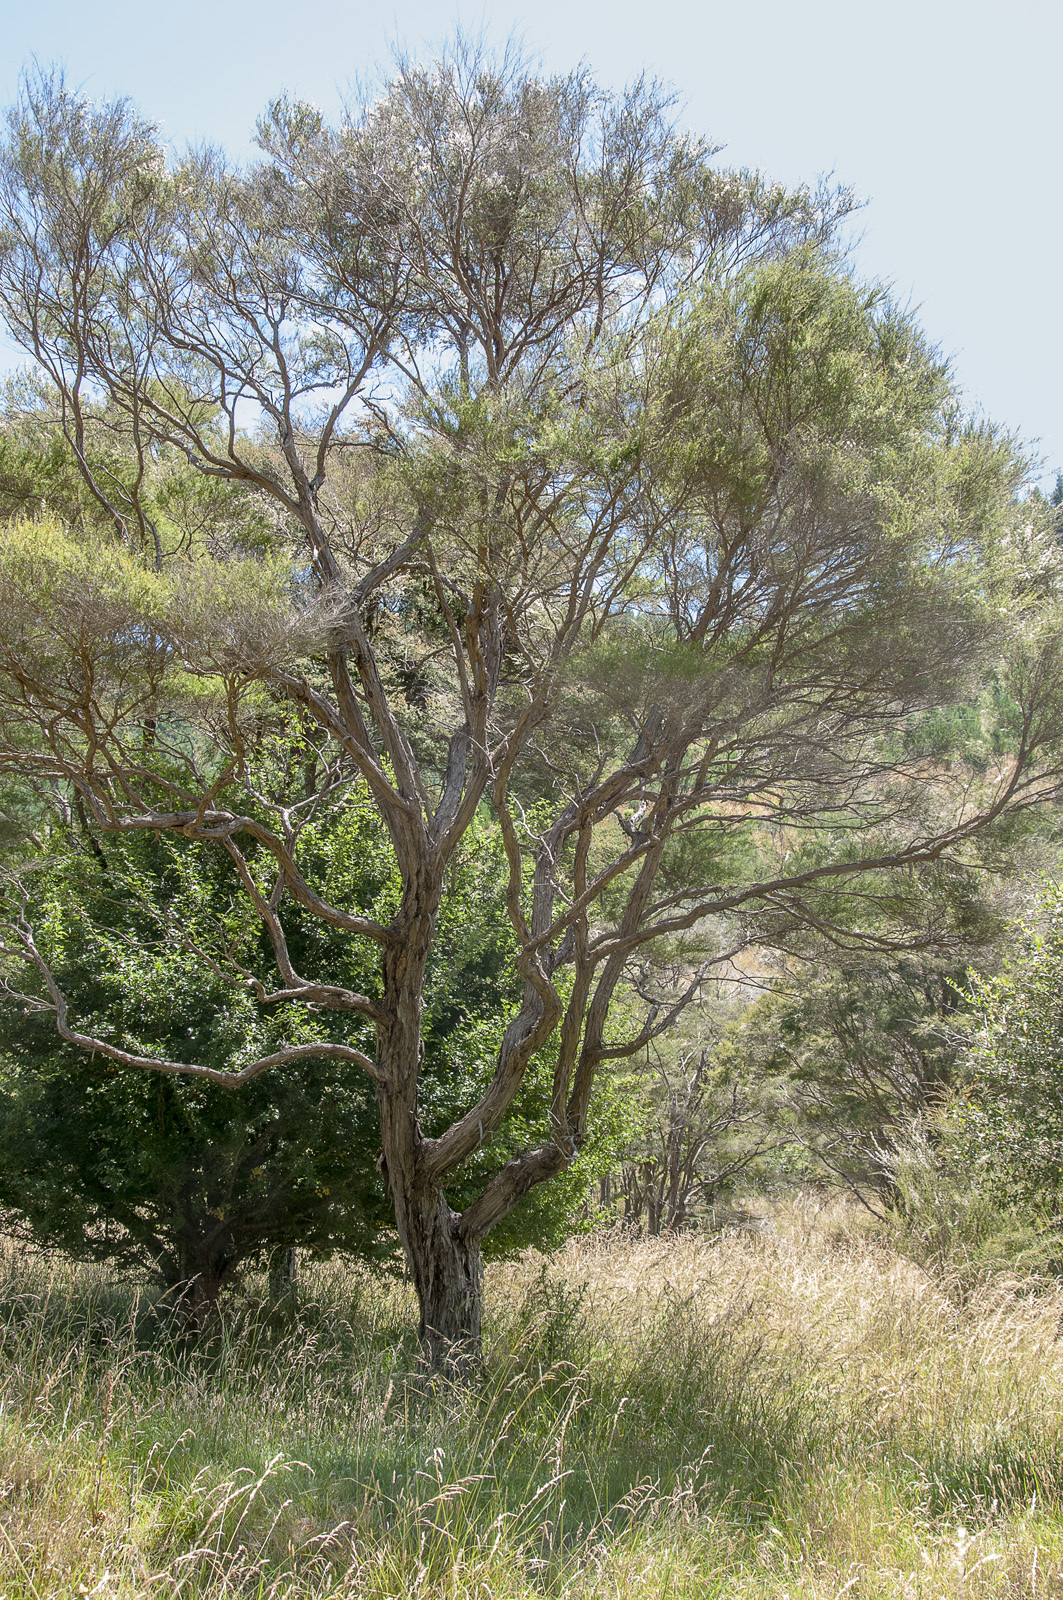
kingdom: Plantae
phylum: Tracheophyta
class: Magnoliopsida
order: Myrtales
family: Myrtaceae
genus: Kunzea
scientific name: Kunzea ericoides
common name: Burgan
